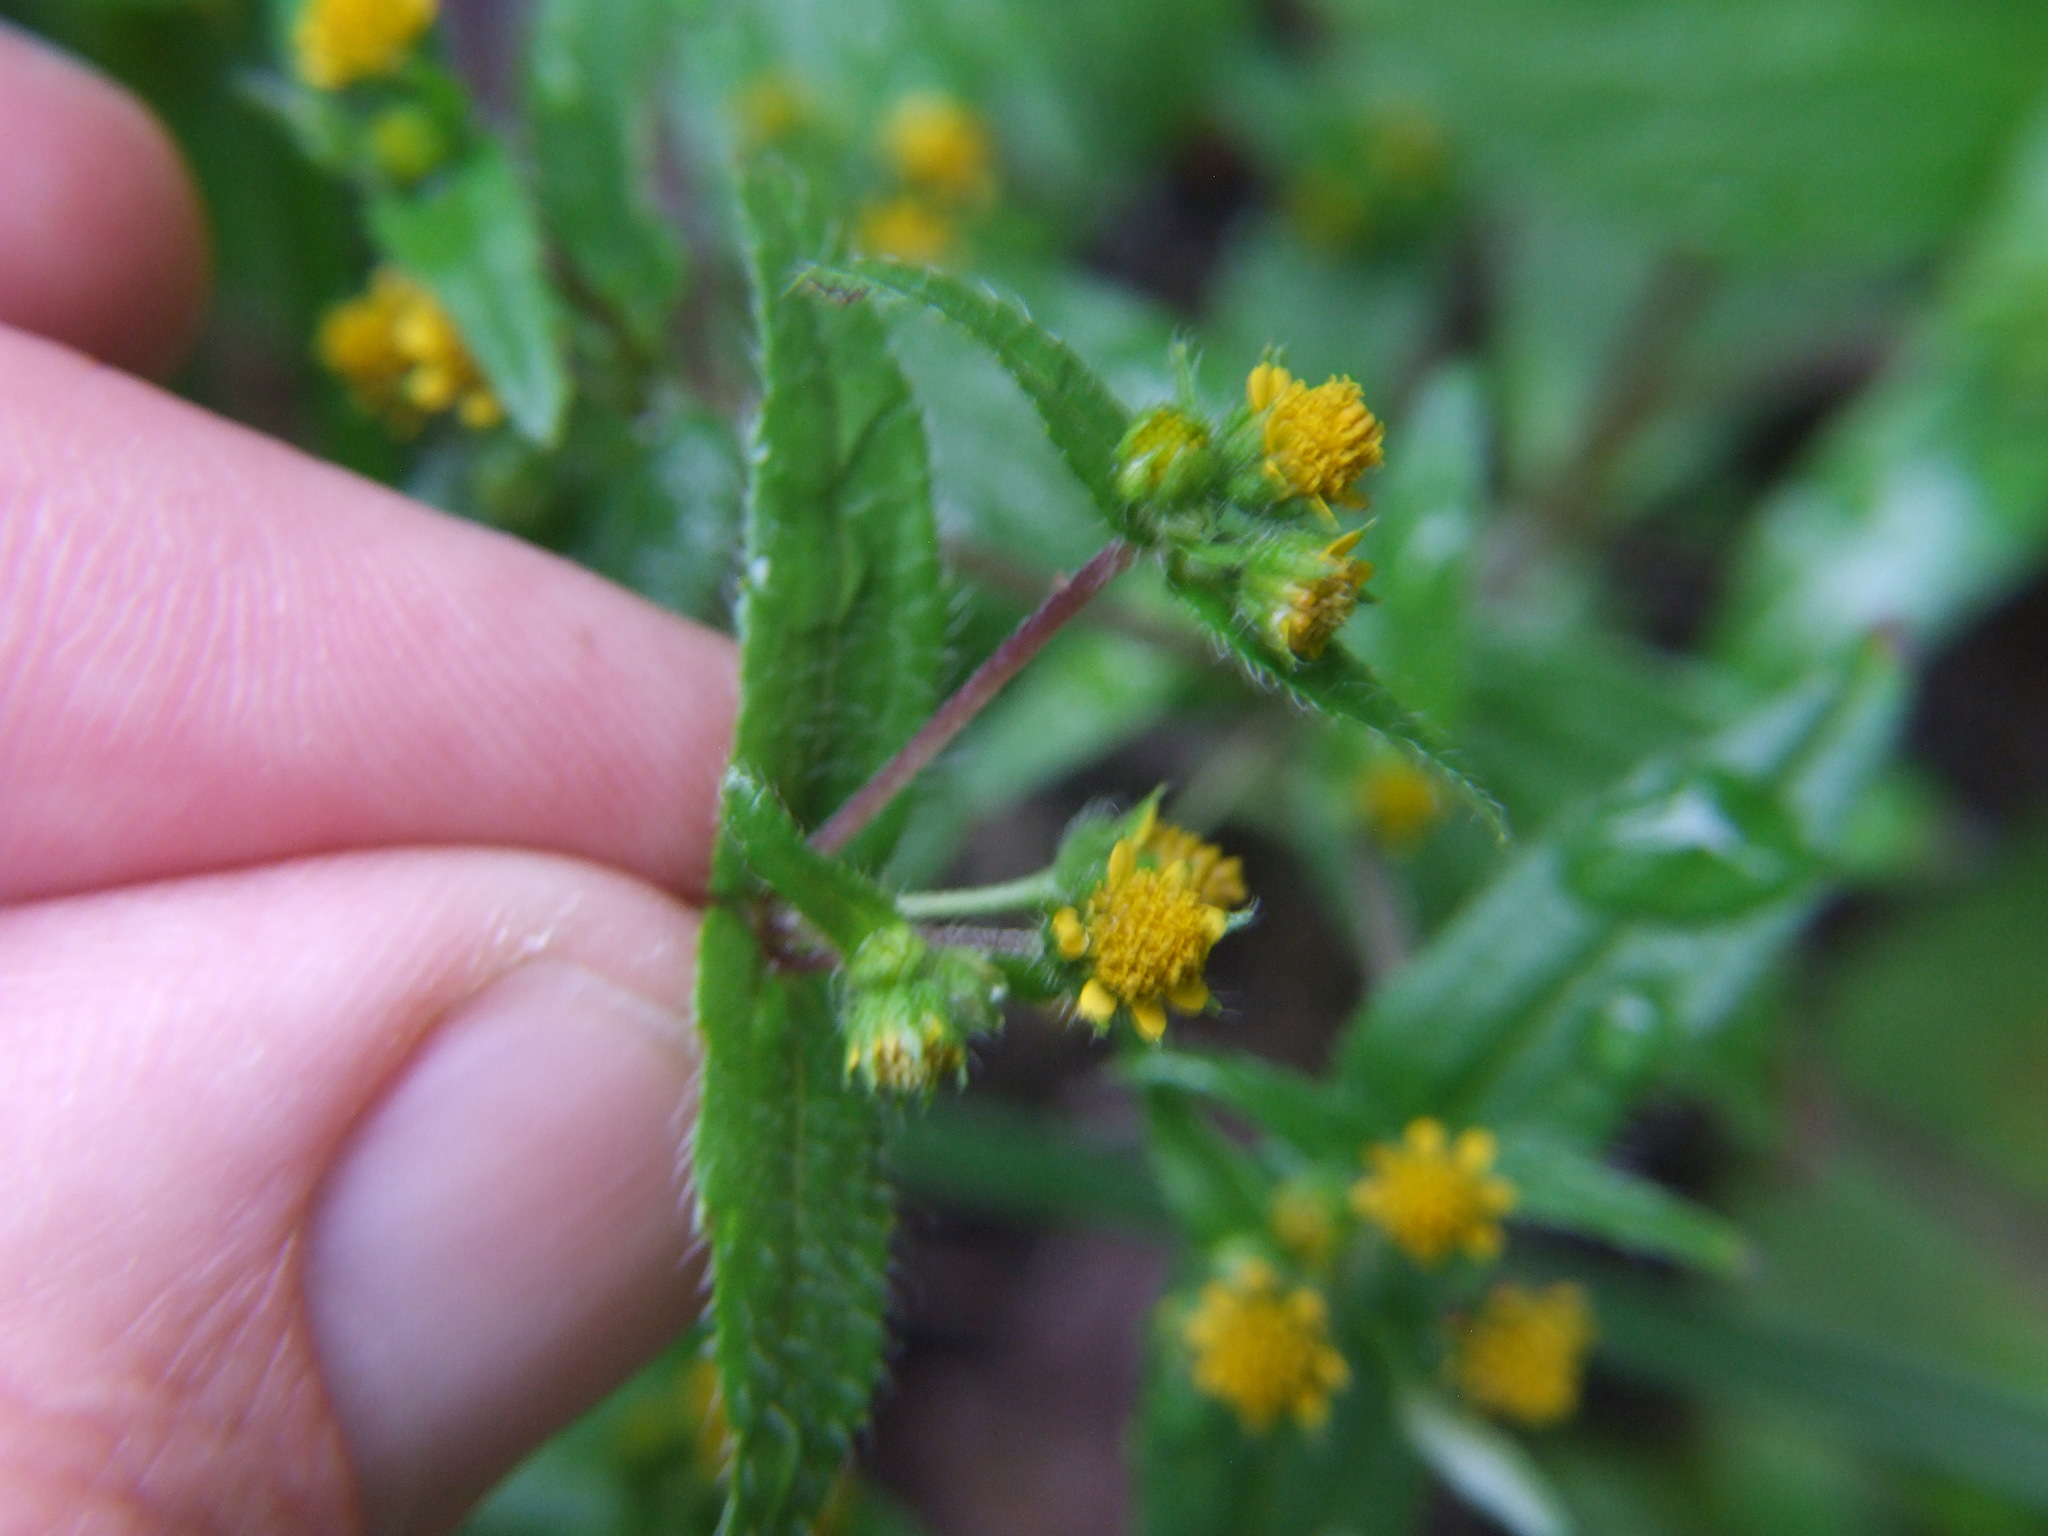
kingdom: Plantae
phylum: Tracheophyta
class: Magnoliopsida
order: Asterales
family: Asteraceae
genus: Jaegeria
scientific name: Jaegeria hirta
